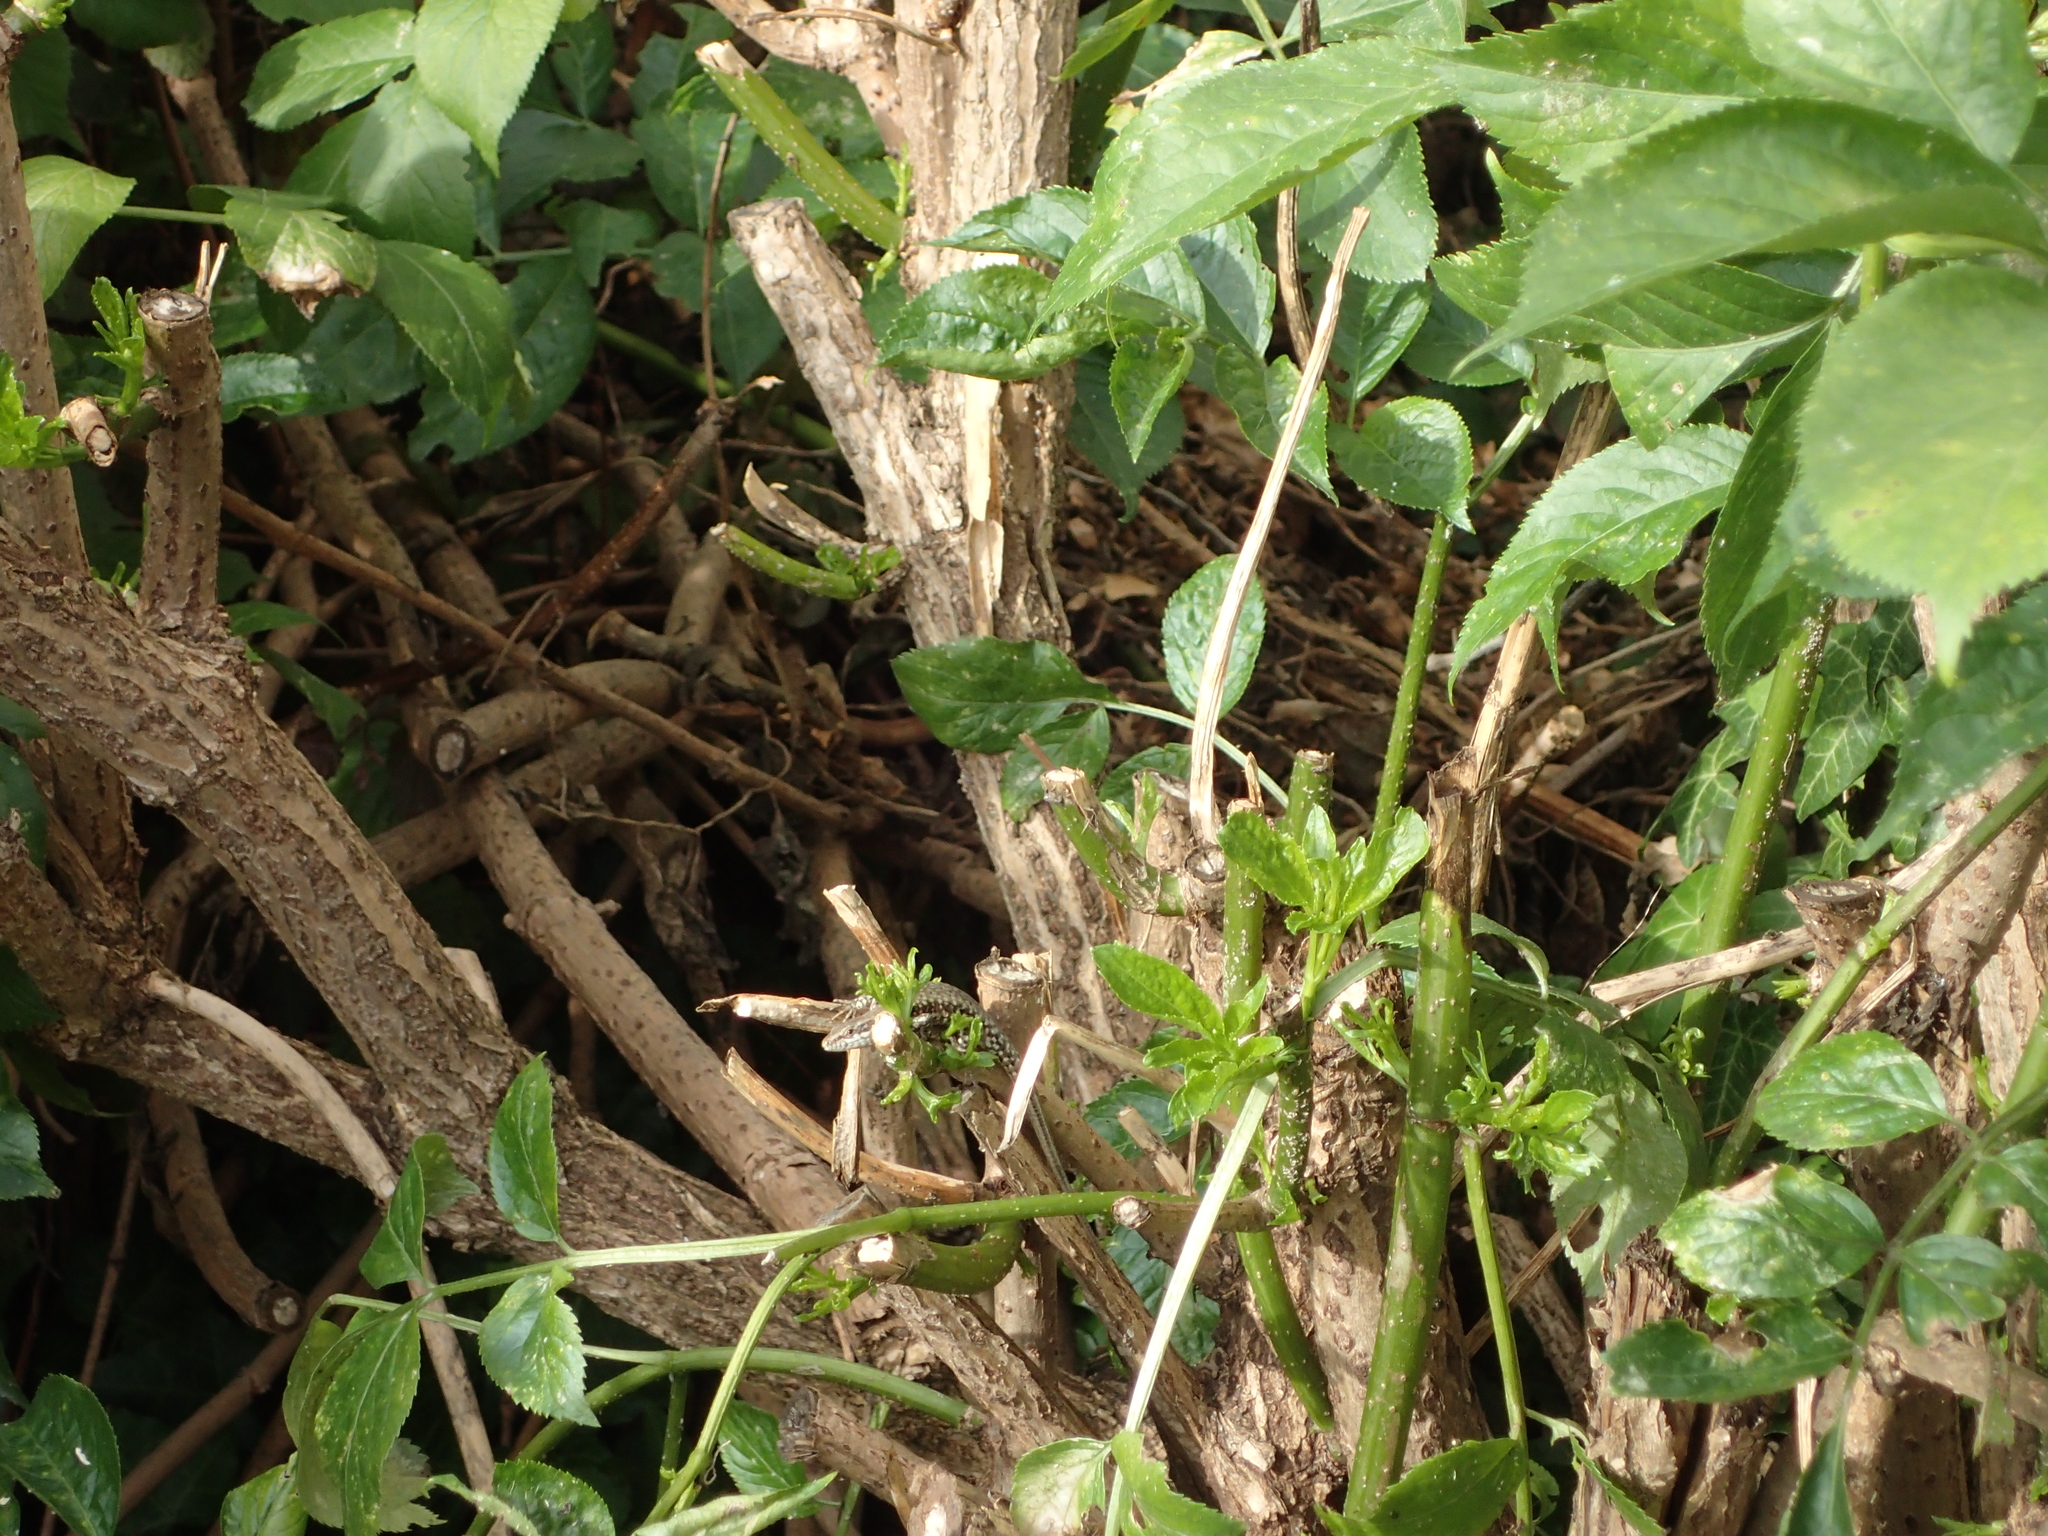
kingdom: Animalia
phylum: Chordata
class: Squamata
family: Lacertidae
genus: Podarcis
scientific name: Podarcis muralis
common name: Common wall lizard
